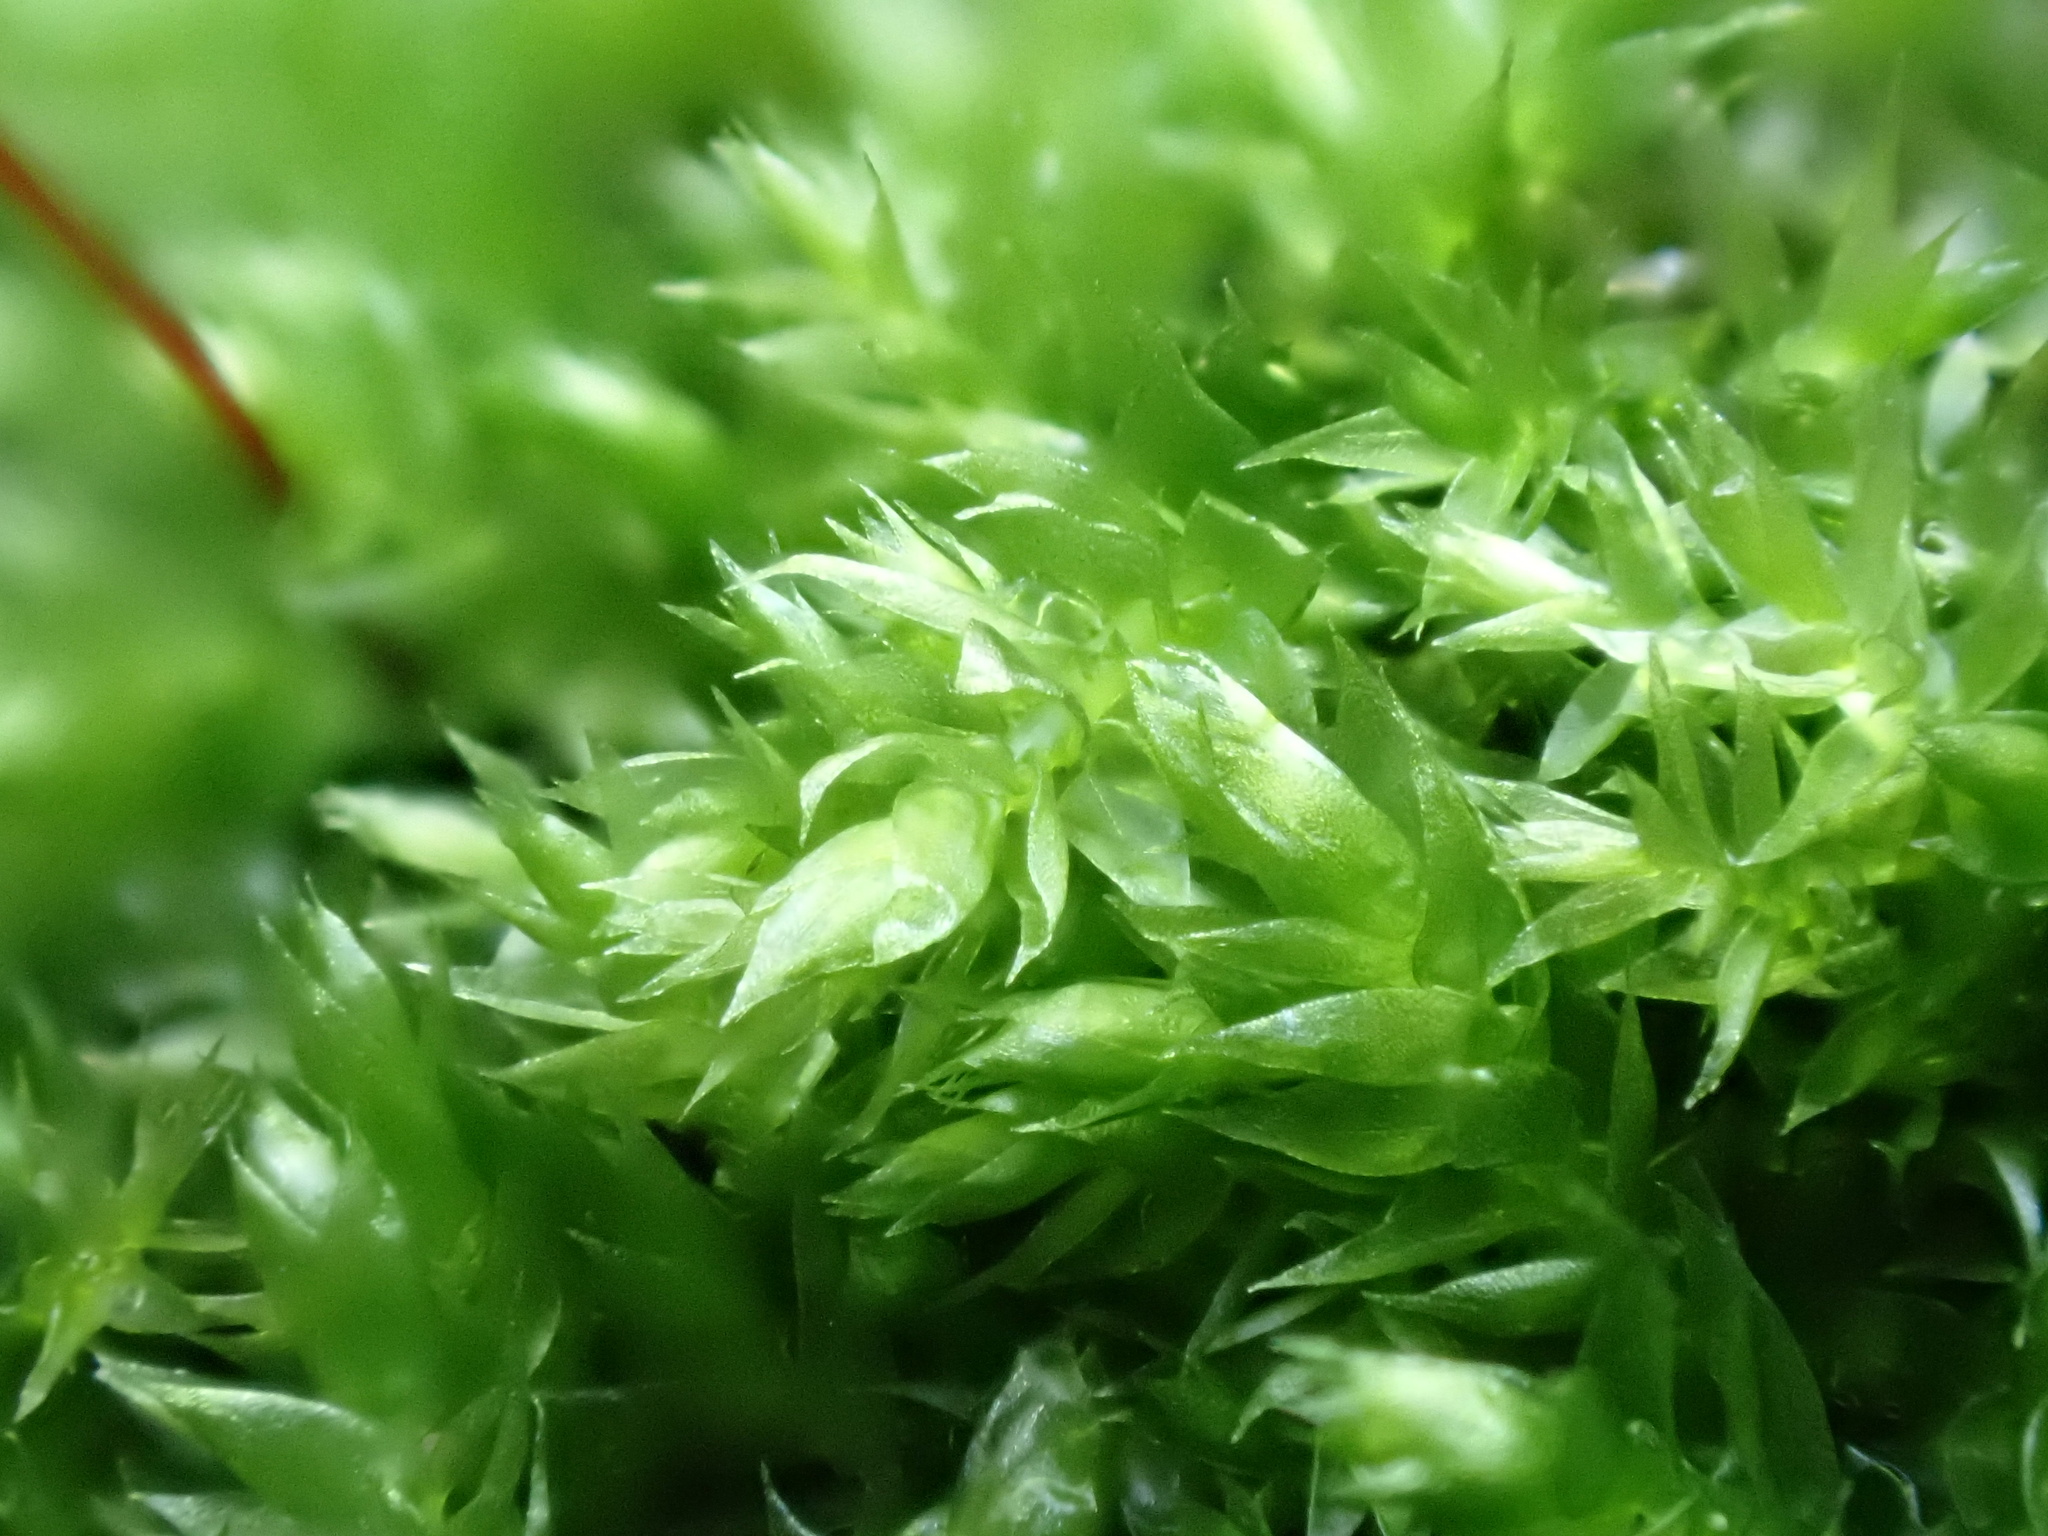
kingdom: Plantae
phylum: Bryophyta
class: Bryopsida
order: Hypnales
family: Brachytheciaceae
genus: Rhynchostegium
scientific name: Rhynchostegium confertum
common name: Clustered feather-moss
